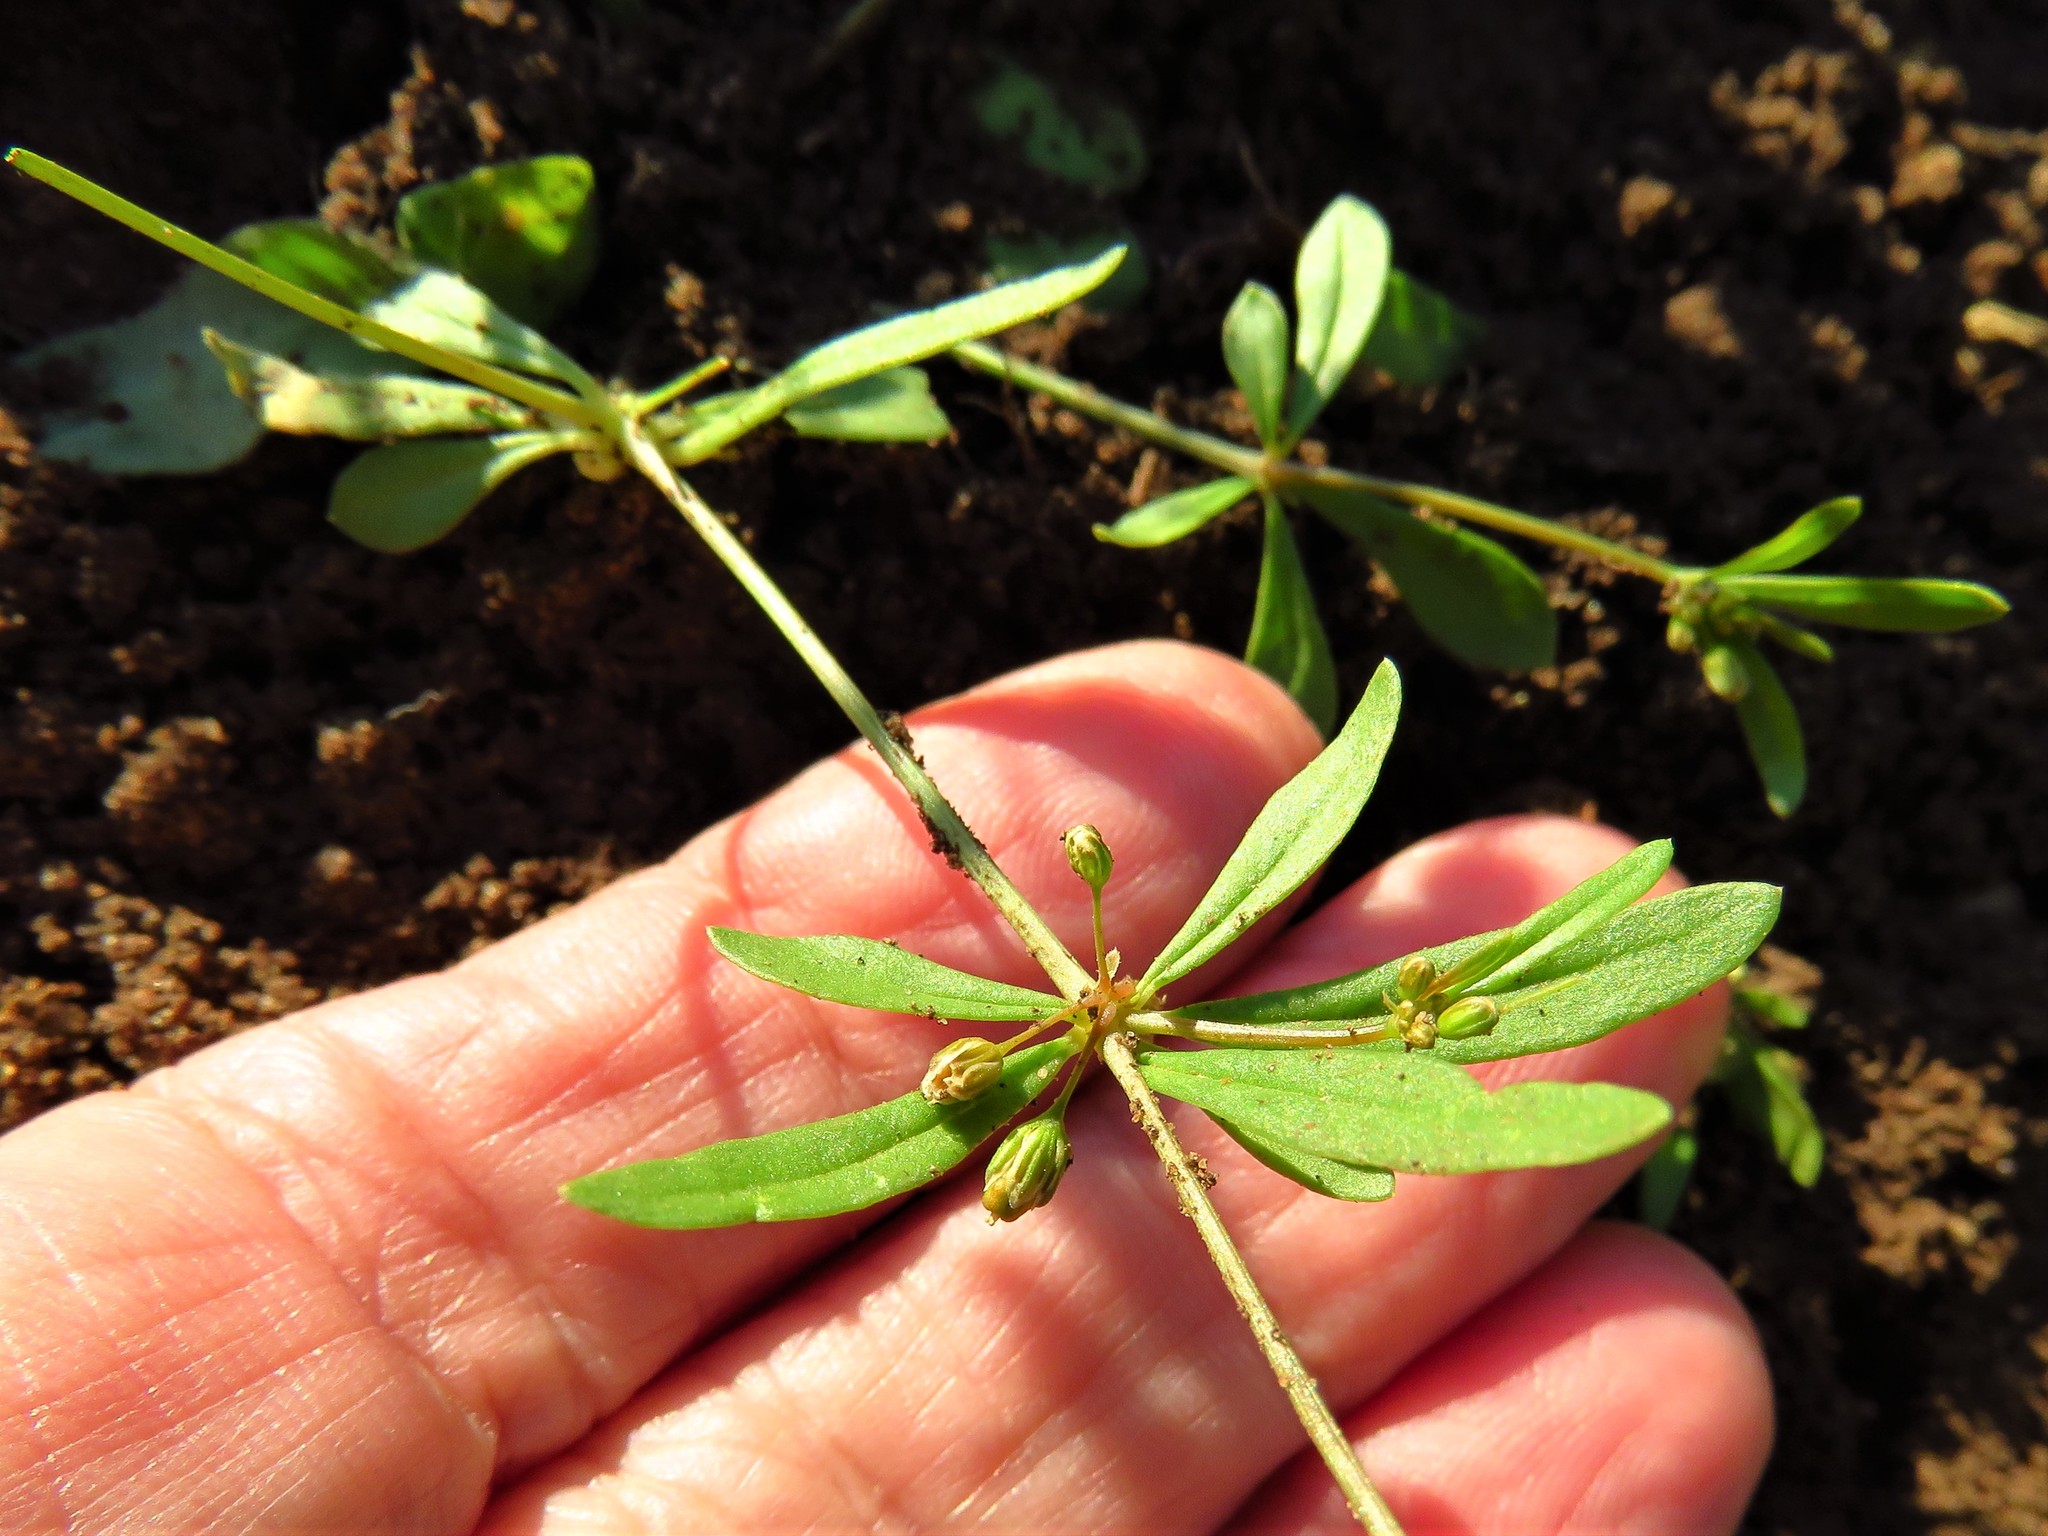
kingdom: Plantae
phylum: Tracheophyta
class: Magnoliopsida
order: Caryophyllales
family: Molluginaceae
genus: Mollugo
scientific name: Mollugo verticillata
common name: Green carpetweed
